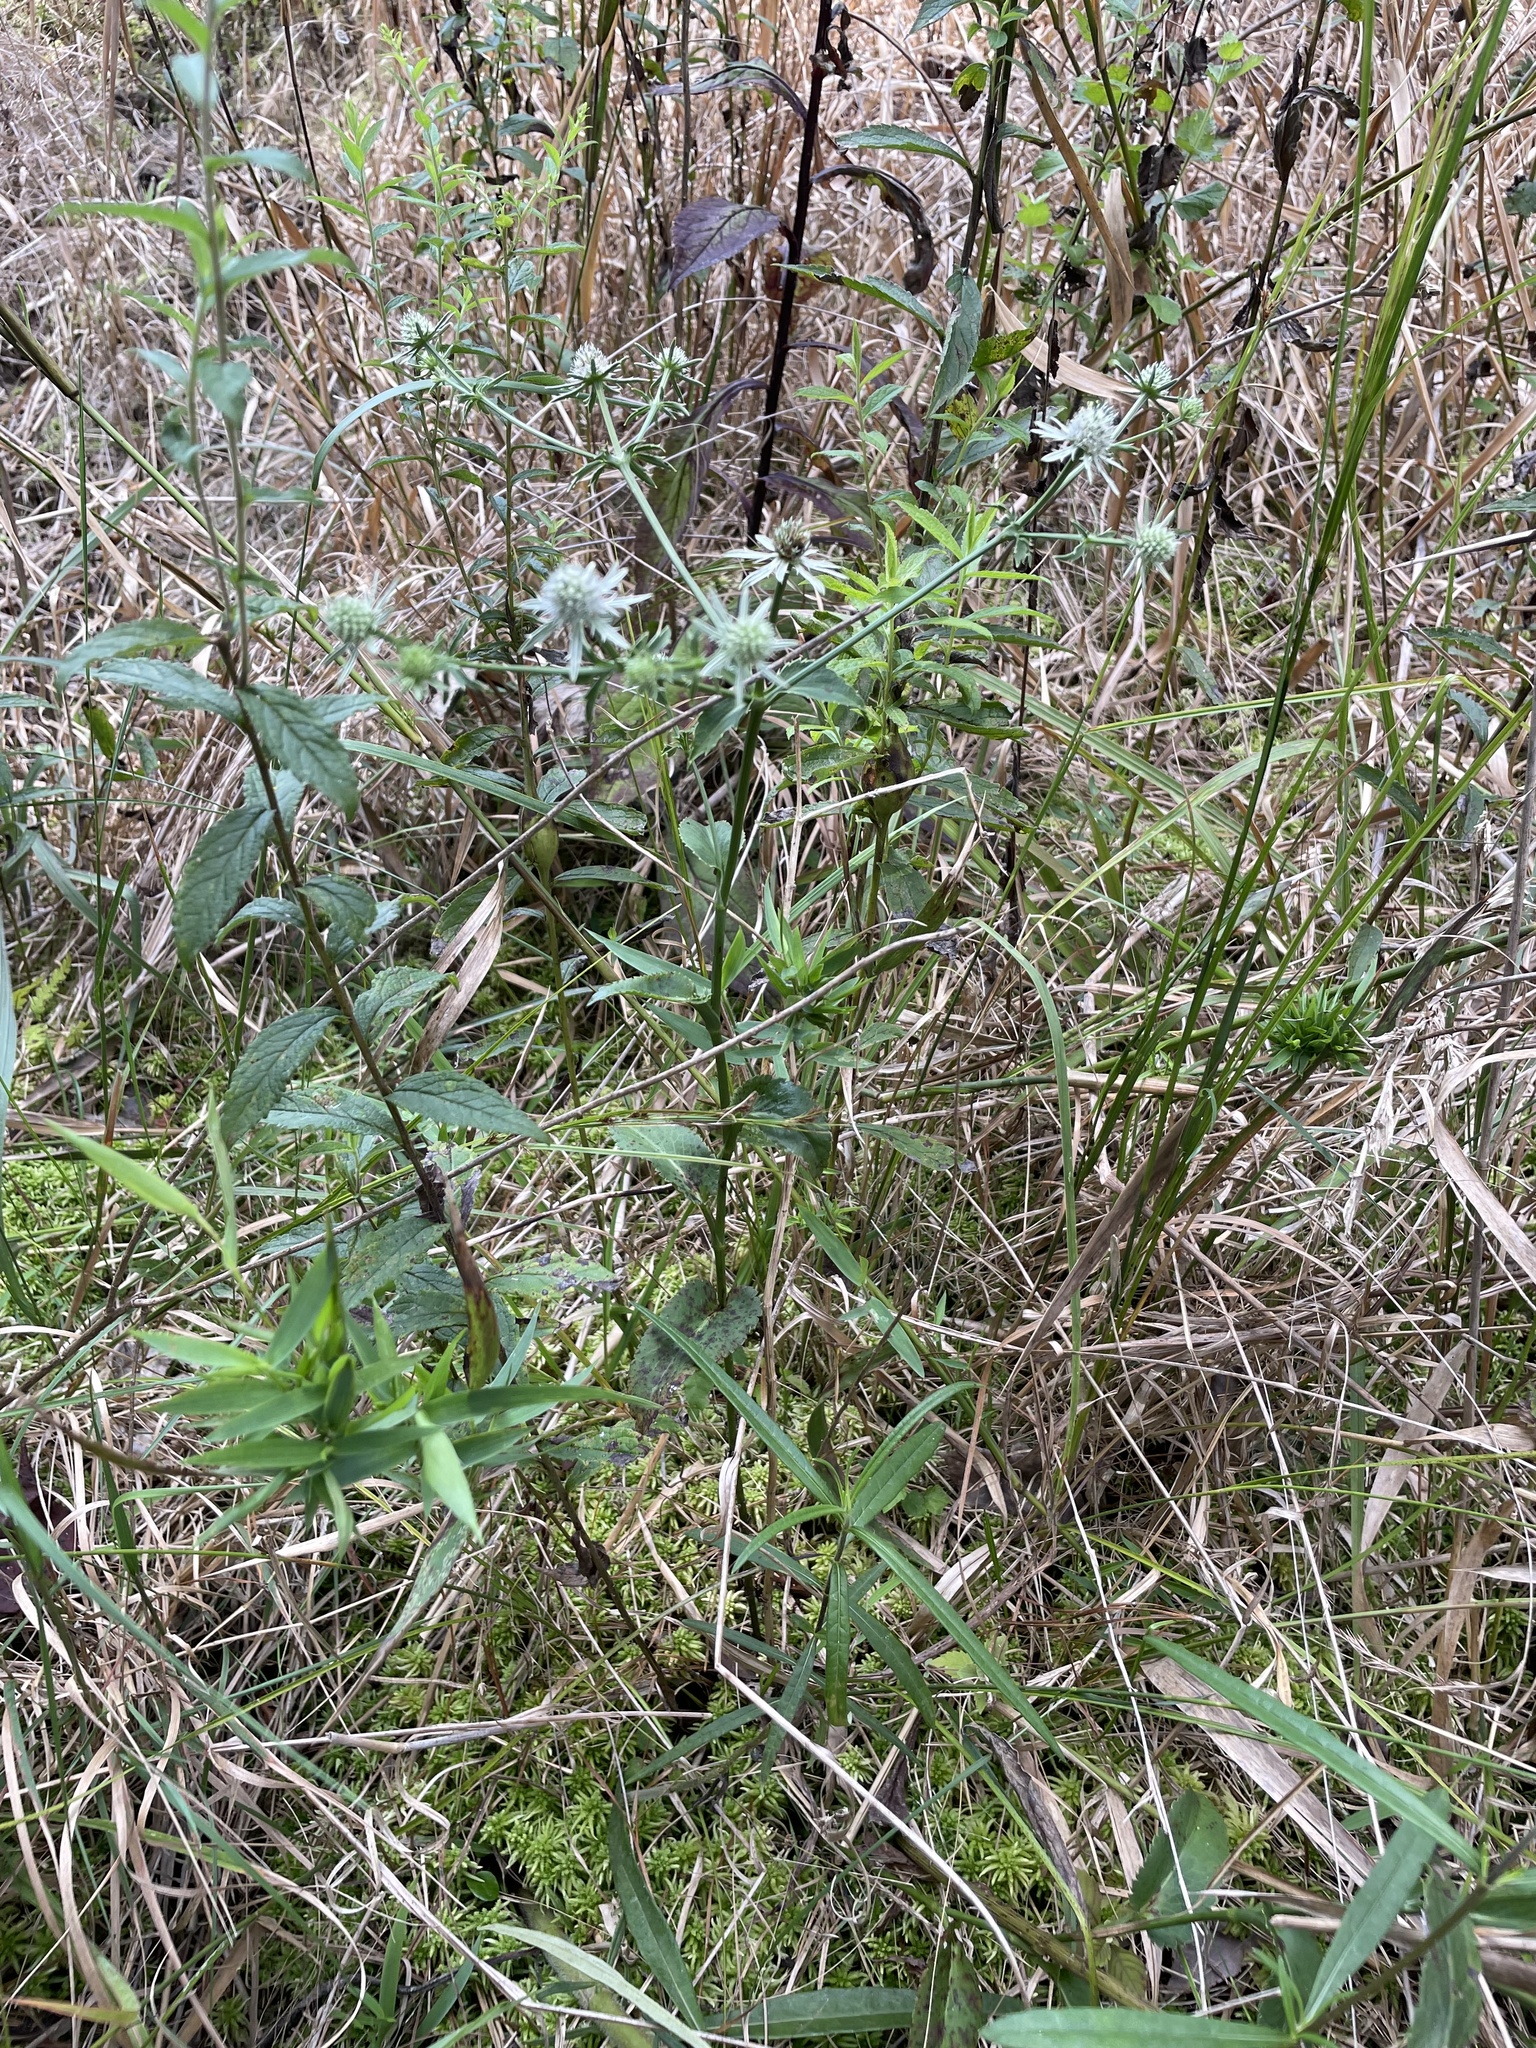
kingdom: Plantae
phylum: Tracheophyta
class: Magnoliopsida
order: Apiales
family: Apiaceae
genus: Eryngium
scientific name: Eryngium integrifolium
